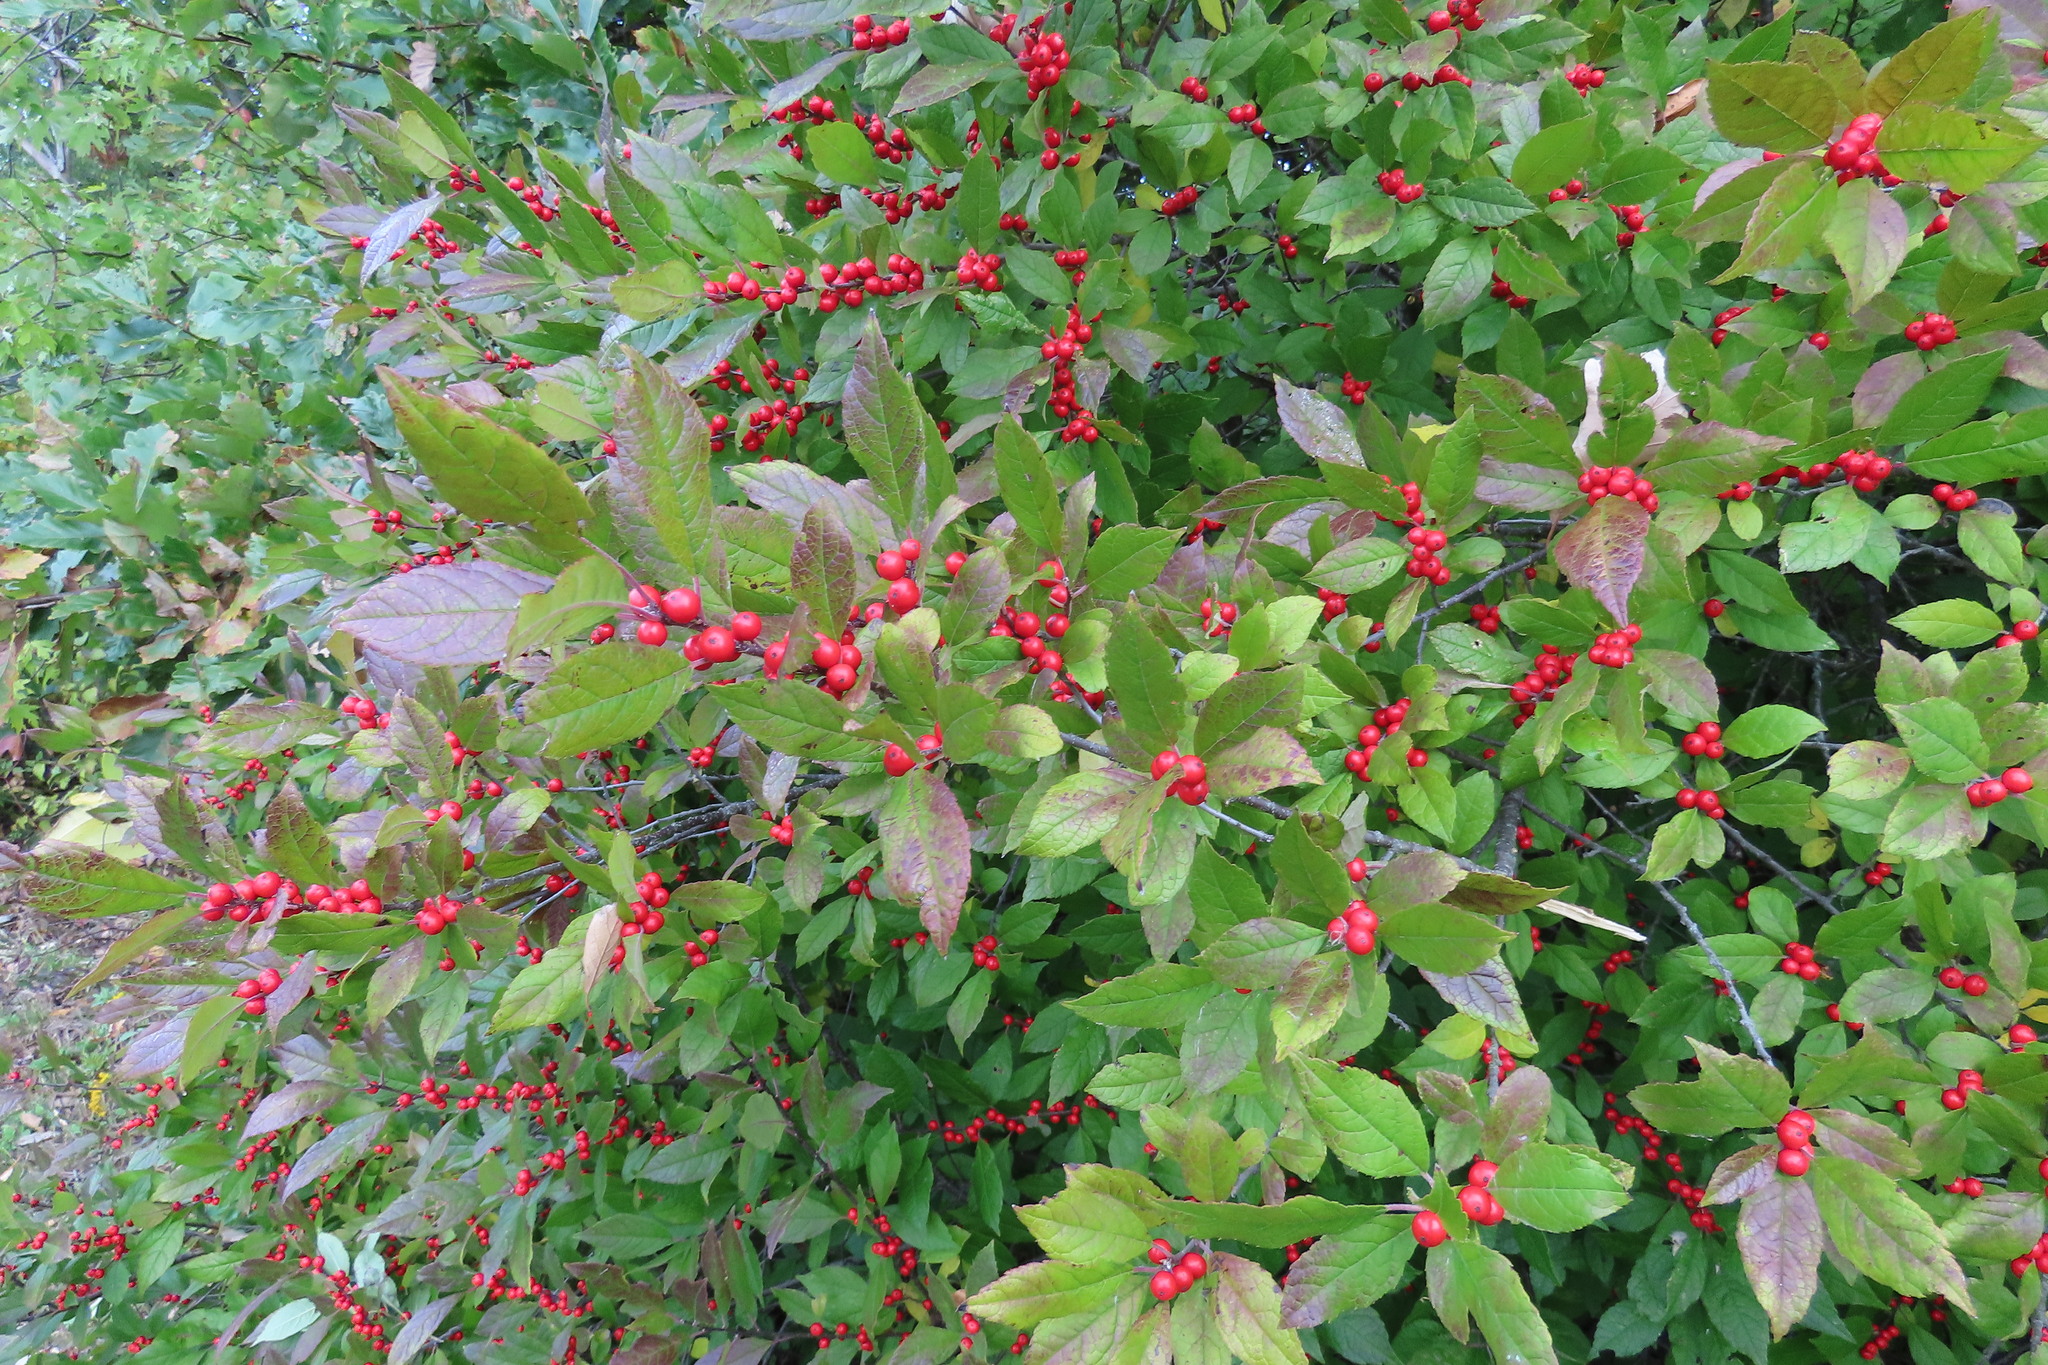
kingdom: Plantae
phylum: Tracheophyta
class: Magnoliopsida
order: Aquifoliales
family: Aquifoliaceae
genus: Ilex
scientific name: Ilex verticillata
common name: Virginia winterberry
